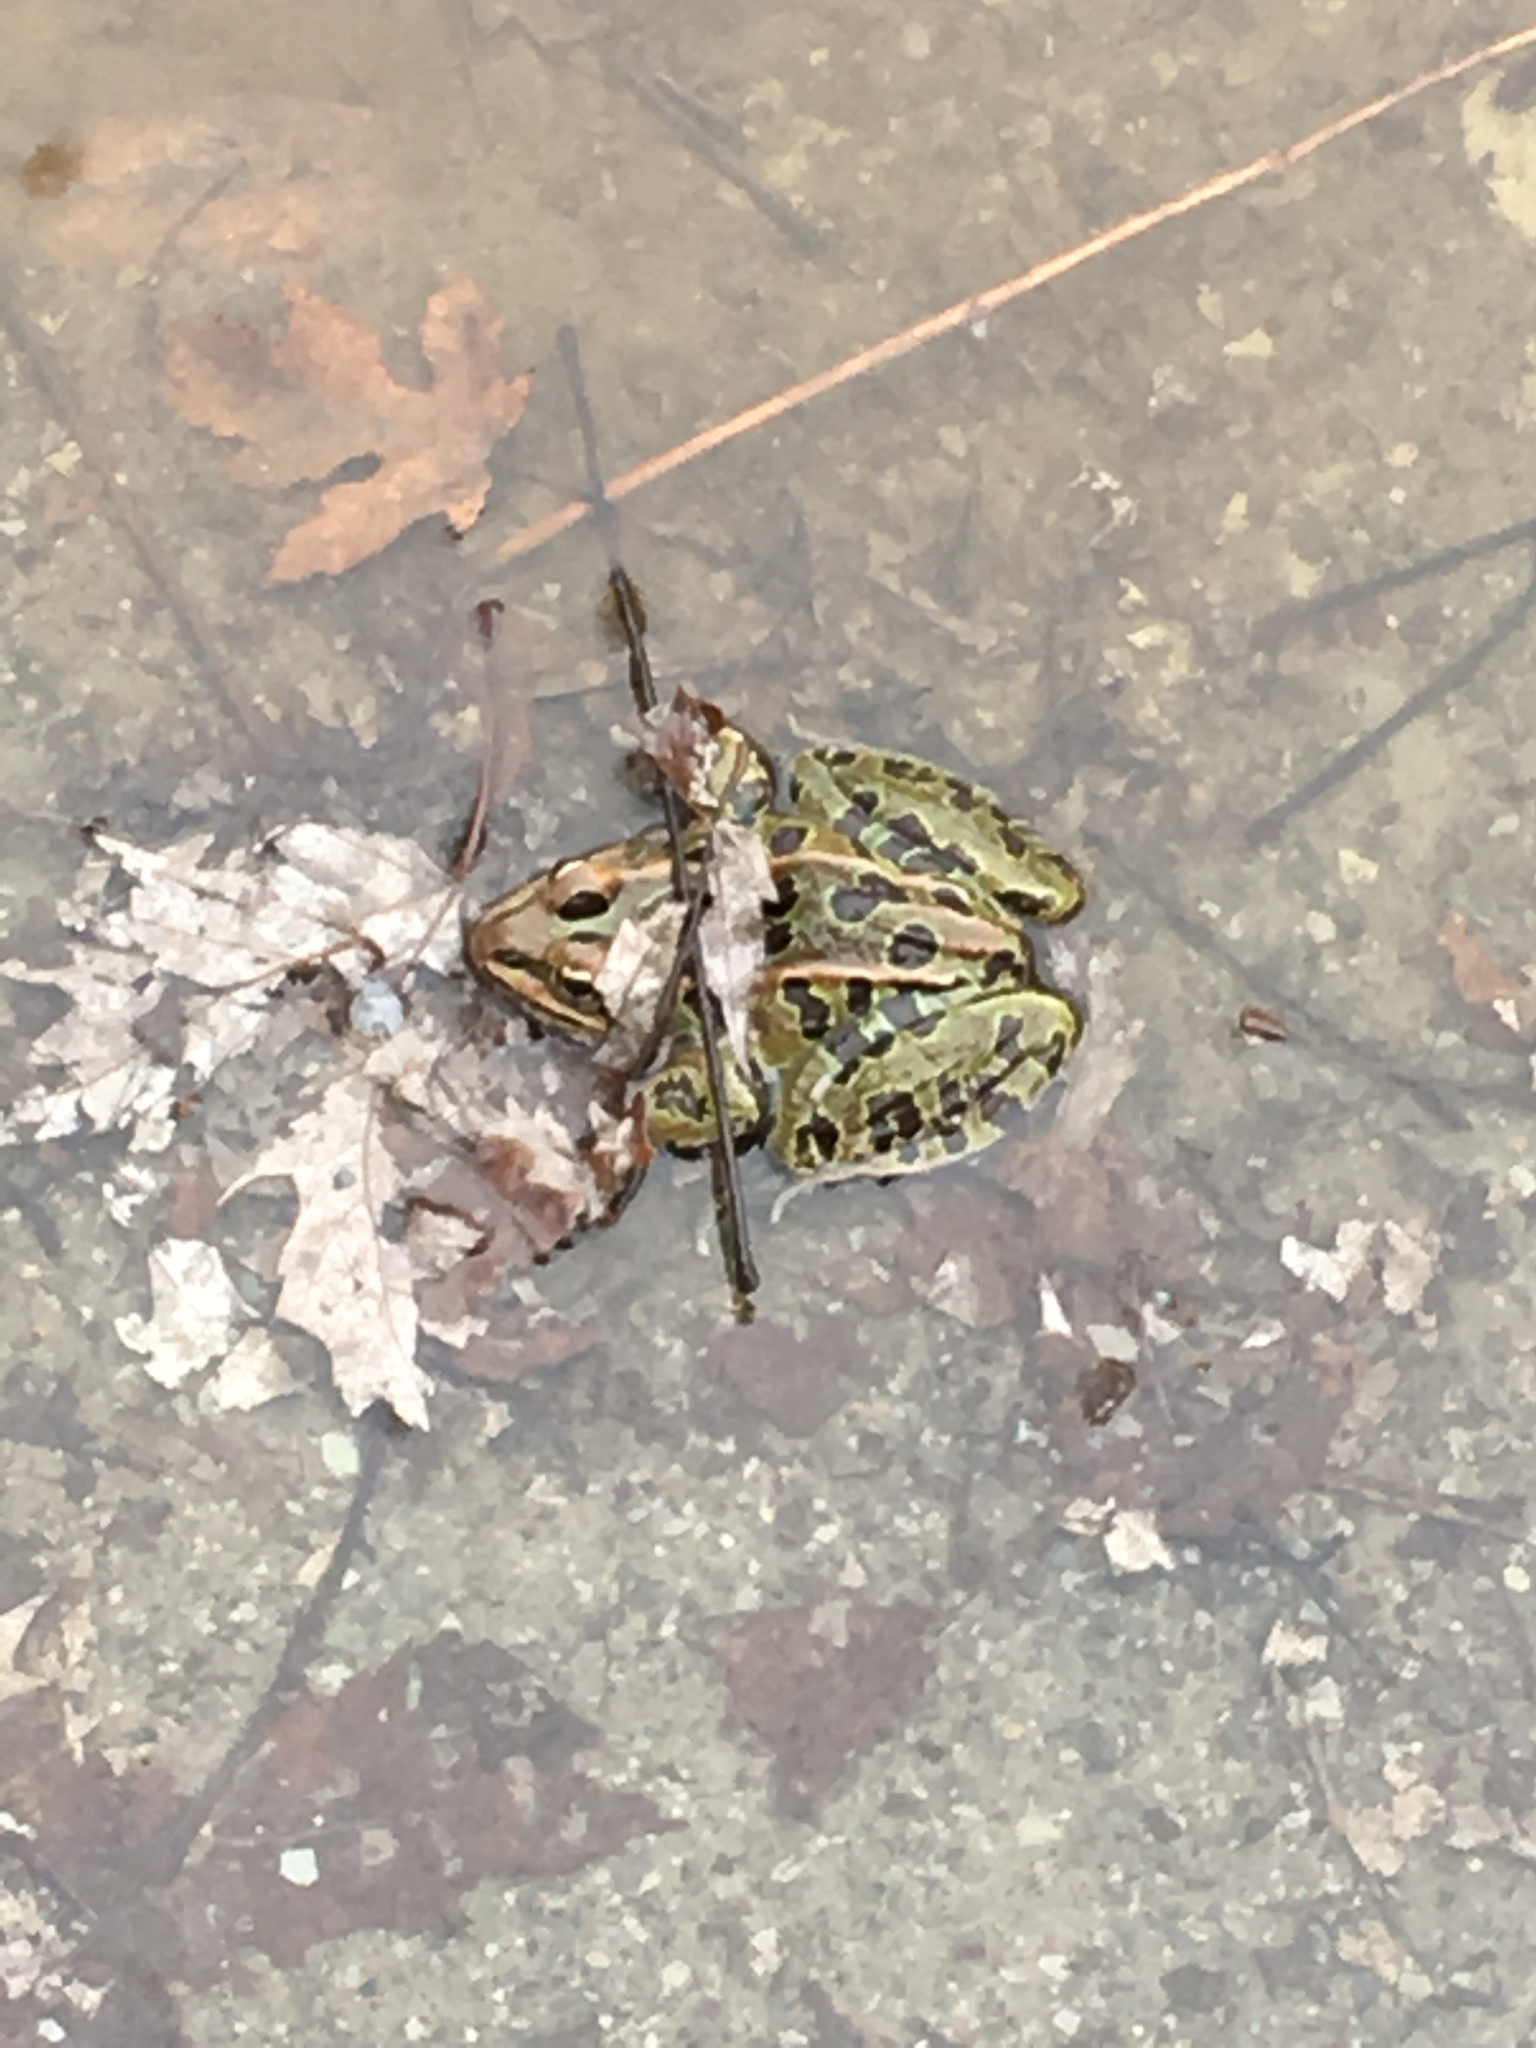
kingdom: Animalia
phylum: Chordata
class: Amphibia
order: Anura
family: Ranidae
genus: Lithobates
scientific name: Lithobates pipiens
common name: Northern leopard frog
